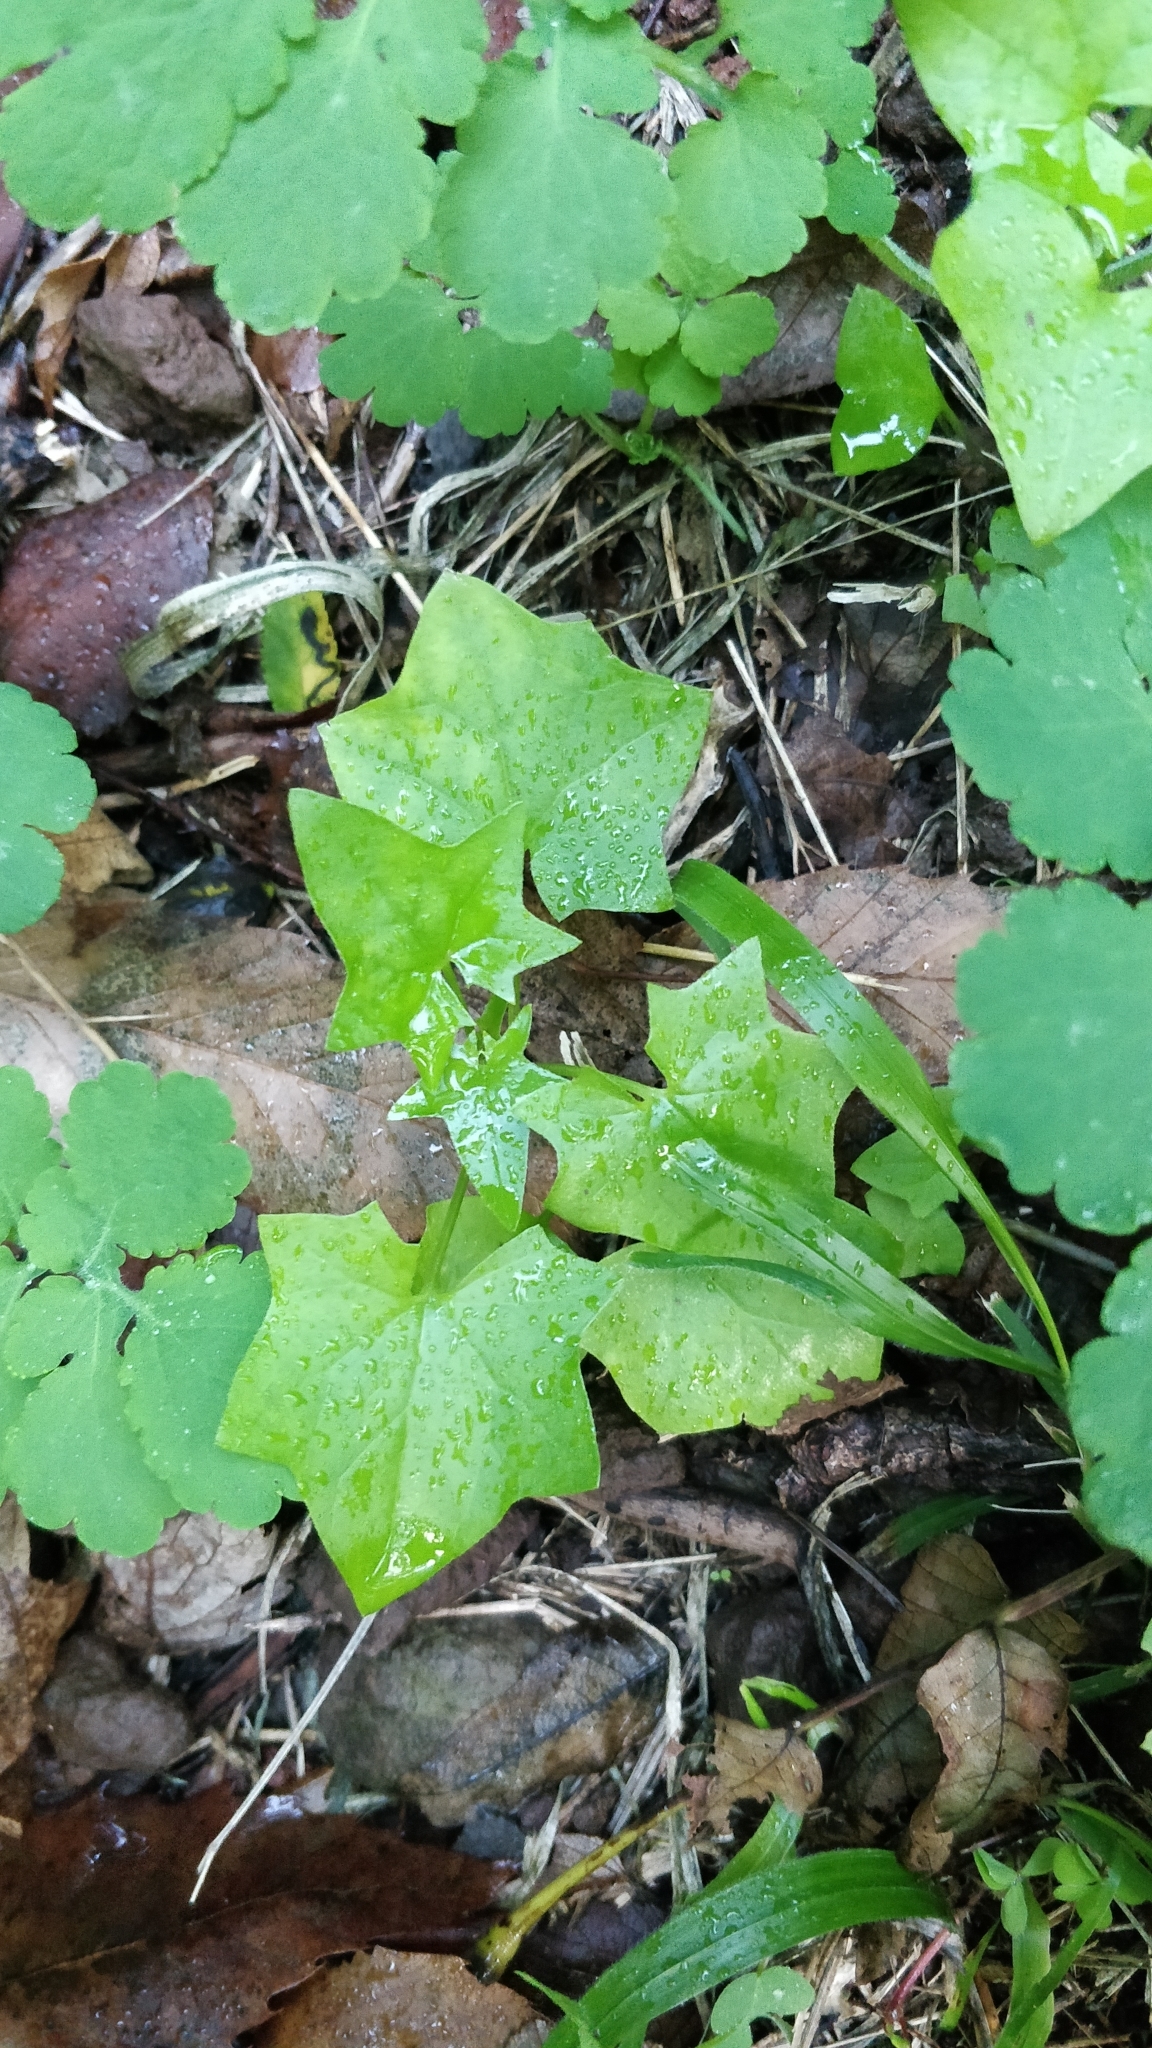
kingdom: Plantae
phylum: Tracheophyta
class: Magnoliopsida
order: Asterales
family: Asteraceae
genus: Delairea
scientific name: Delairea odorata
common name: Cape-ivy
